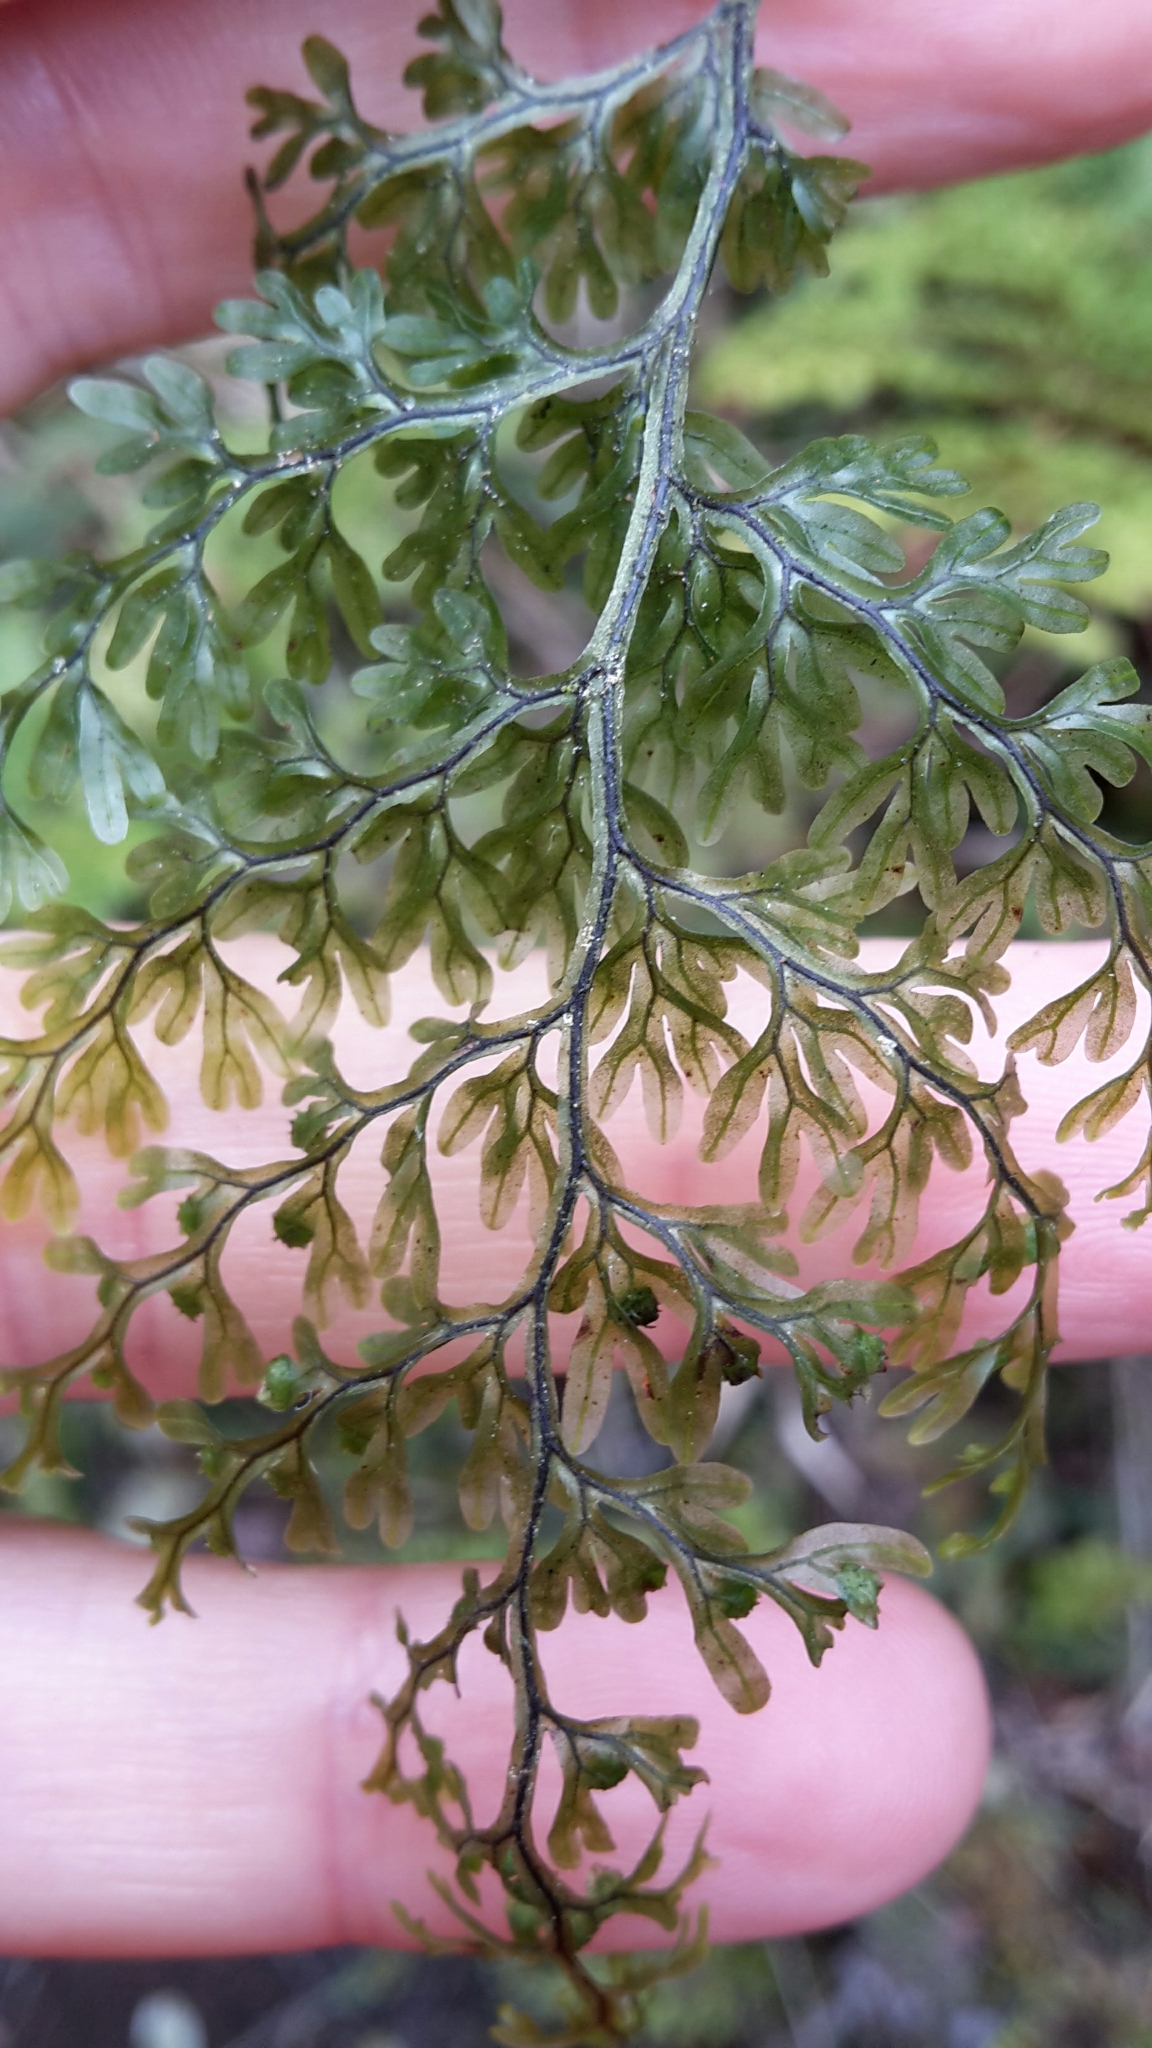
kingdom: Plantae
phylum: Tracheophyta
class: Polypodiopsida
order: Hymenophyllales
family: Hymenophyllaceae
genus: Hymenophyllum
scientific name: Hymenophyllum sanguinolentum
